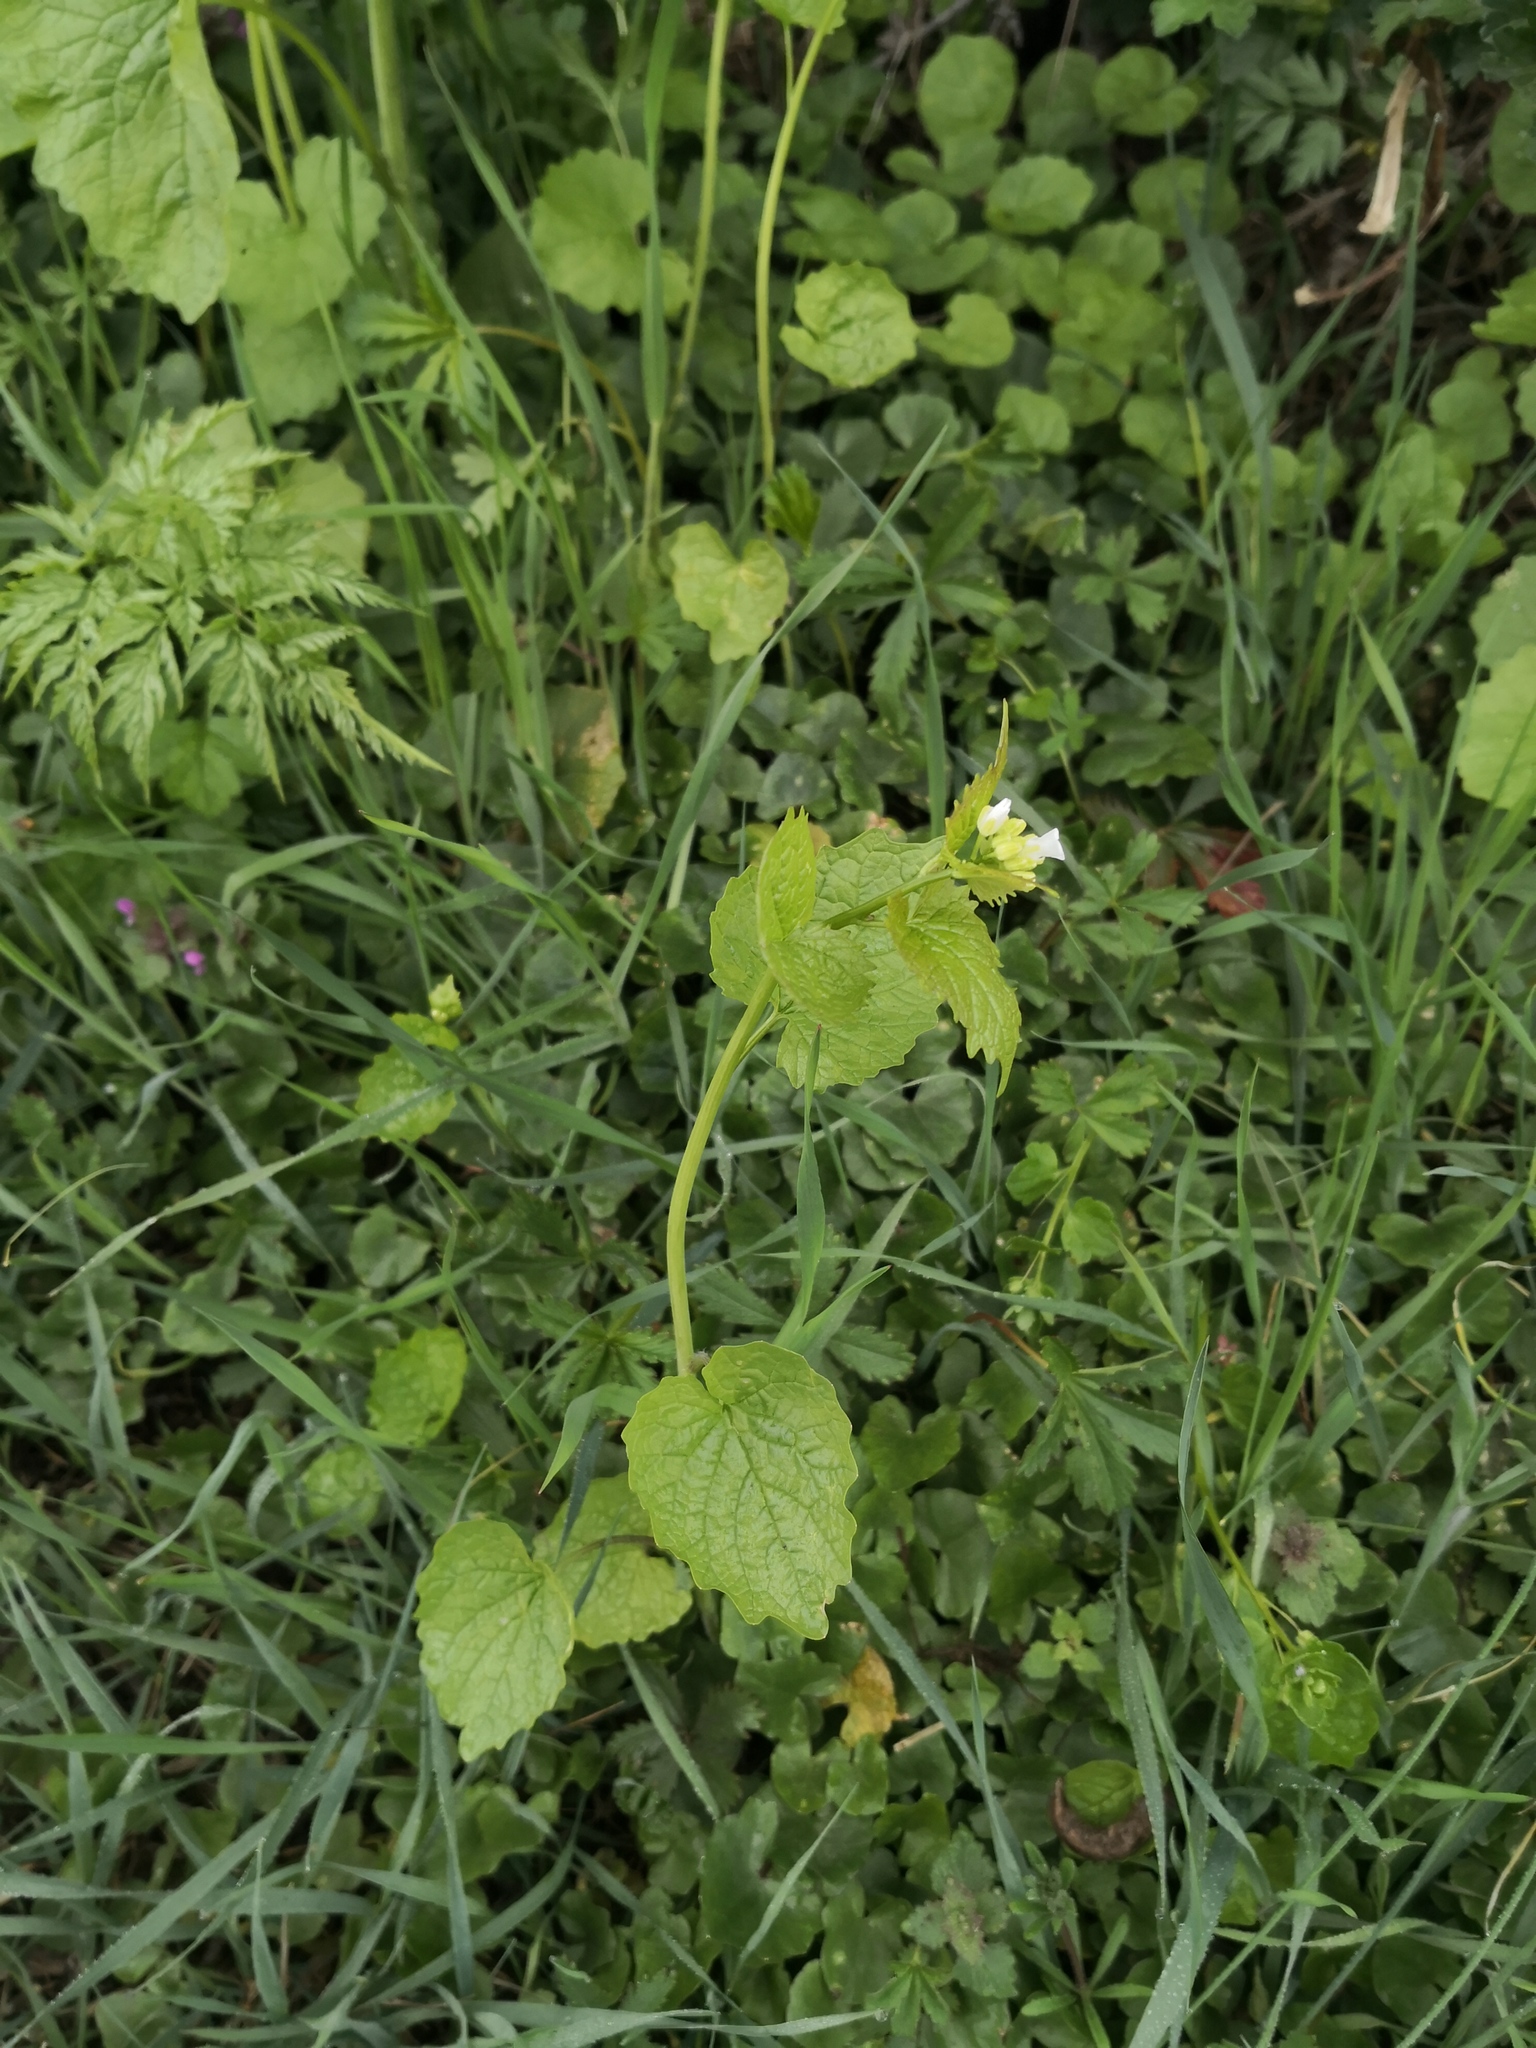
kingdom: Plantae
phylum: Tracheophyta
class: Magnoliopsida
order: Brassicales
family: Brassicaceae
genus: Alliaria
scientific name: Alliaria petiolata
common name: Garlic mustard
